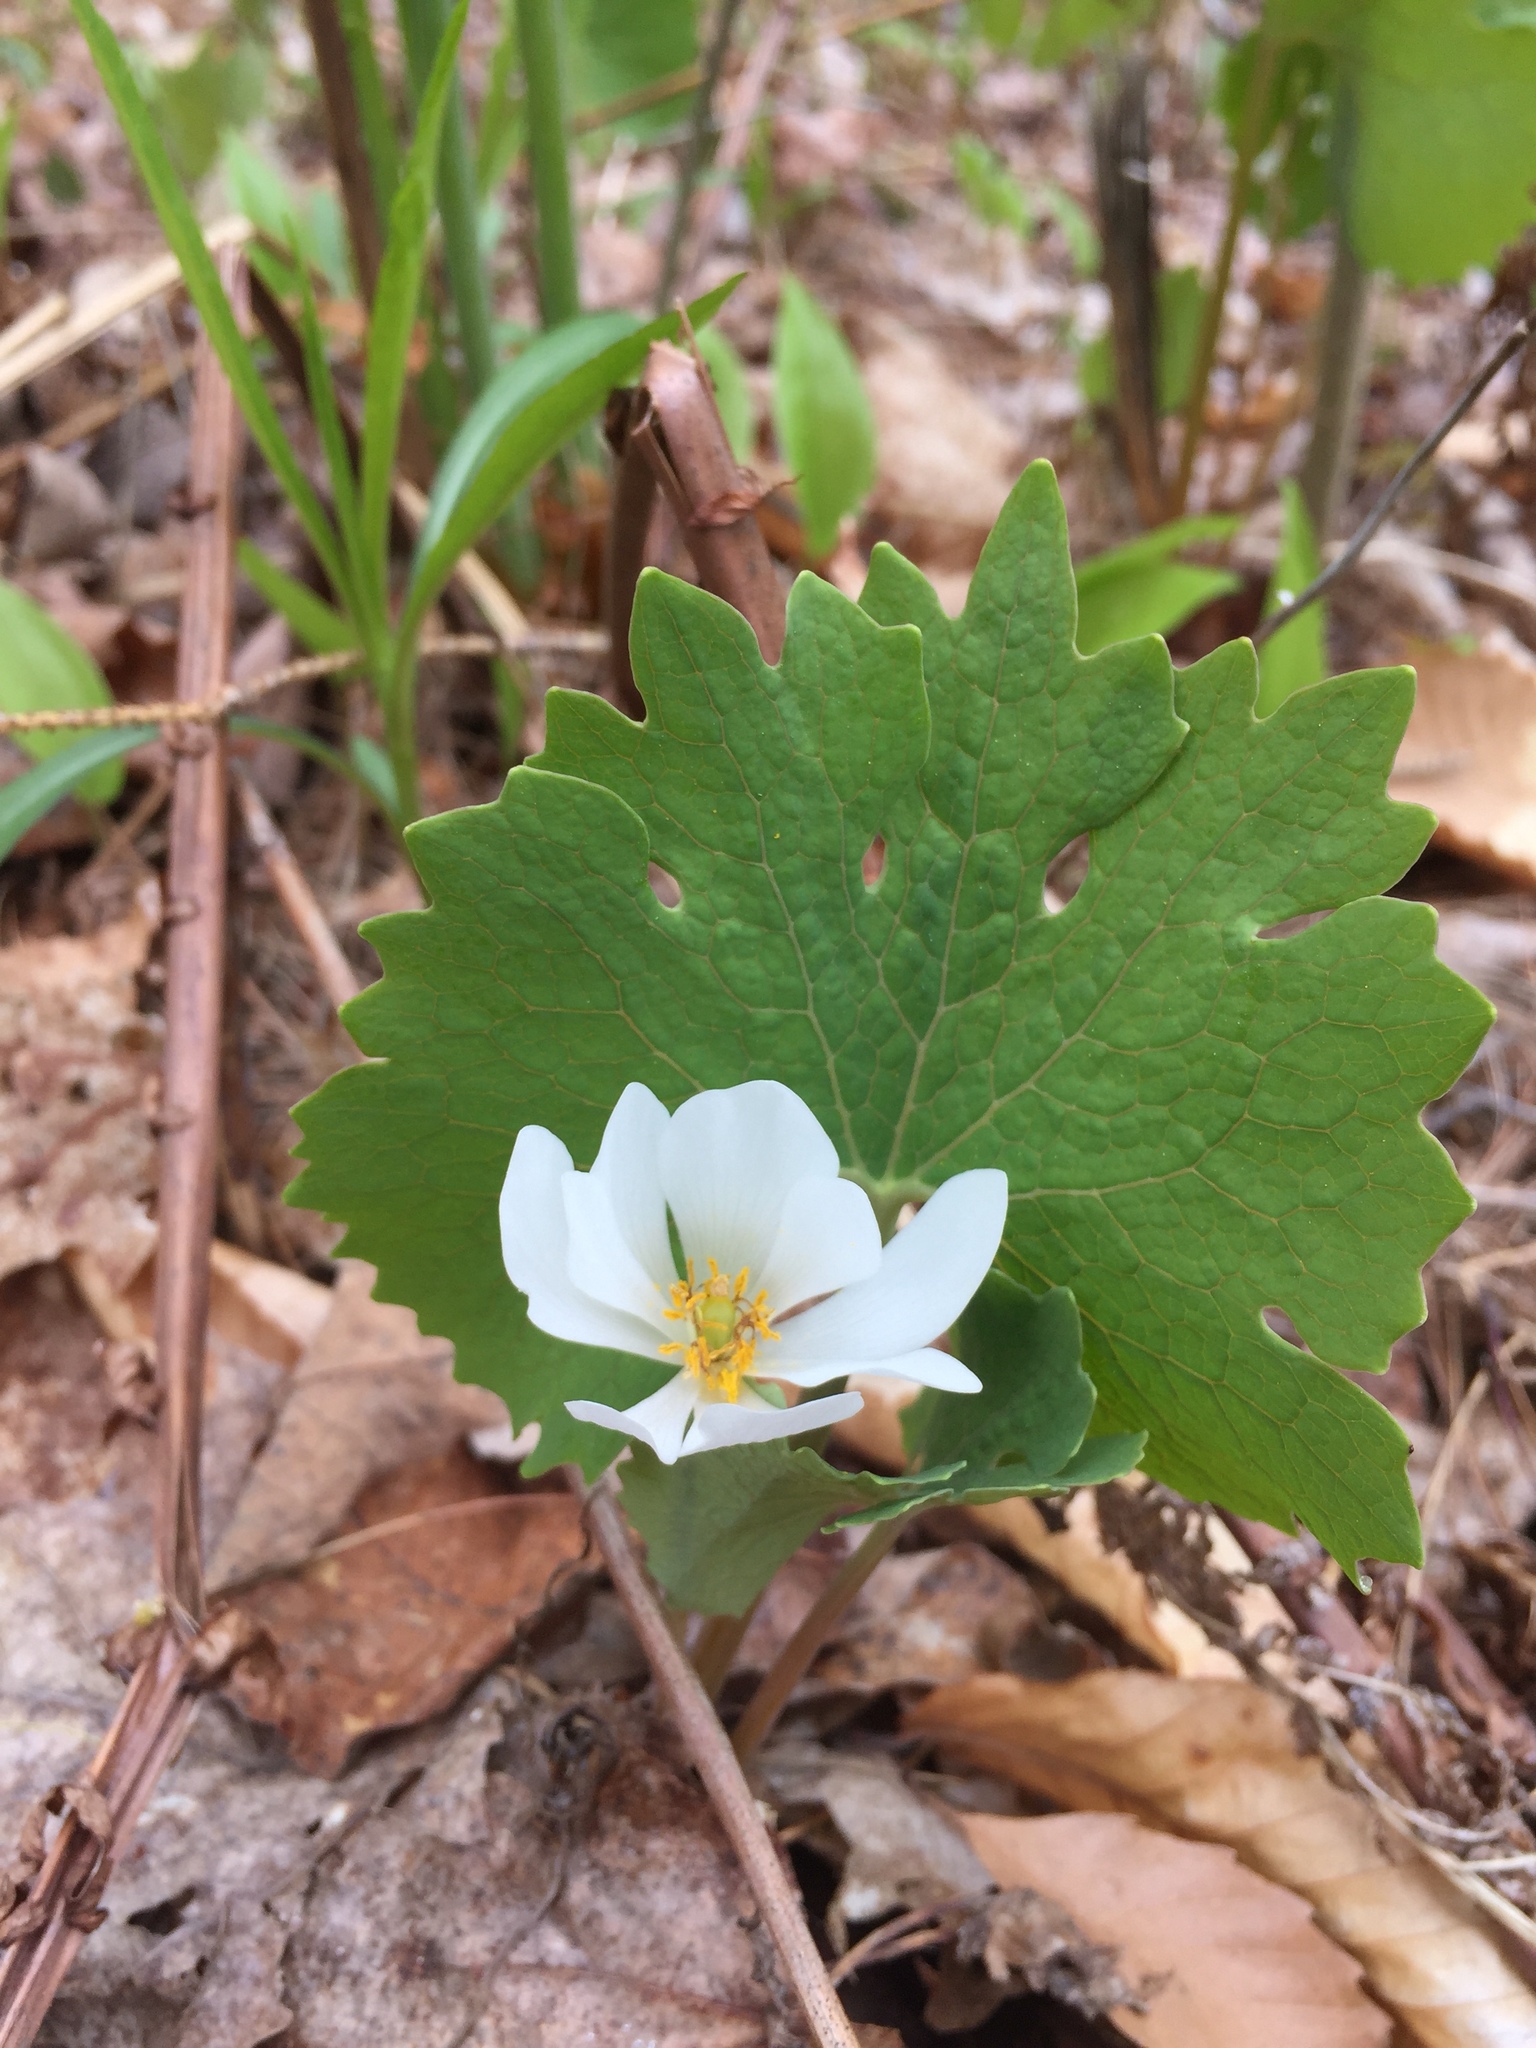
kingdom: Plantae
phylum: Tracheophyta
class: Magnoliopsida
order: Ranunculales
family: Papaveraceae
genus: Sanguinaria
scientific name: Sanguinaria canadensis
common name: Bloodroot
